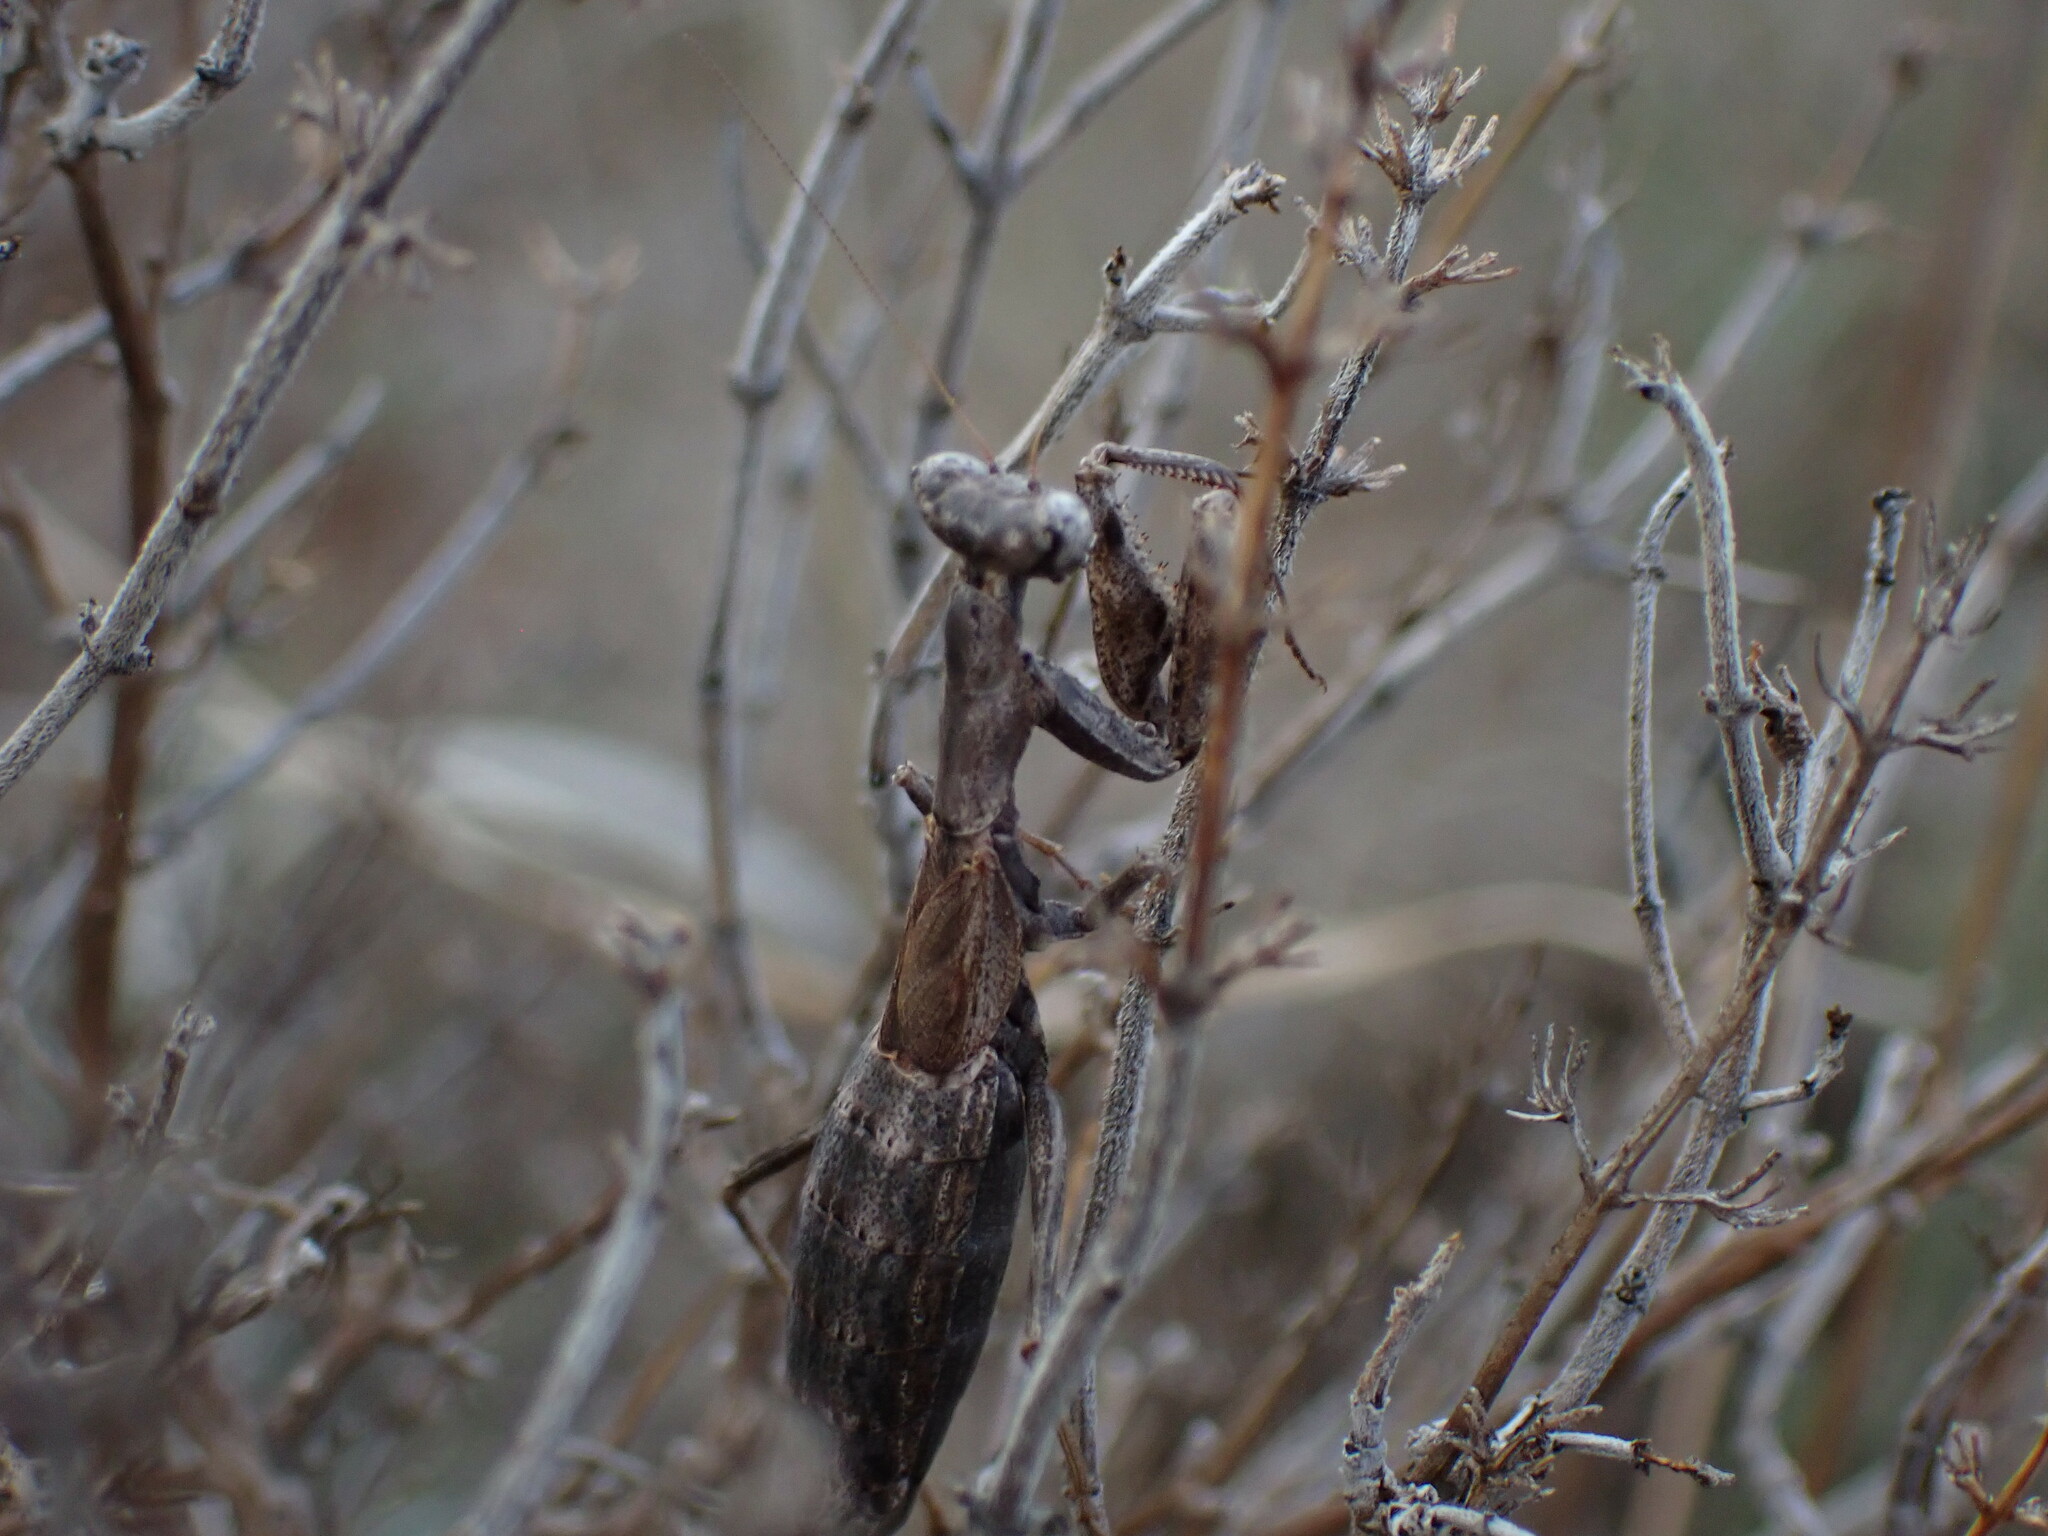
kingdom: Animalia
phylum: Arthropoda
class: Insecta
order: Mantodea
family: Amelidae
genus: Ameles
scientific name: Ameles decolor
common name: Dwarf mantis
